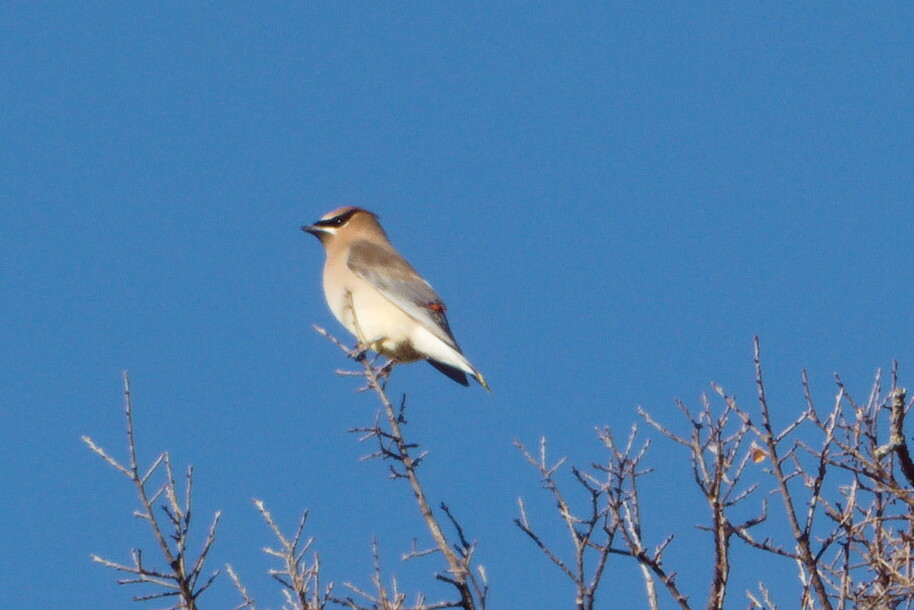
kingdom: Animalia
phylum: Chordata
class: Aves
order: Passeriformes
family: Bombycillidae
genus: Bombycilla
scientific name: Bombycilla cedrorum
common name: Cedar waxwing
